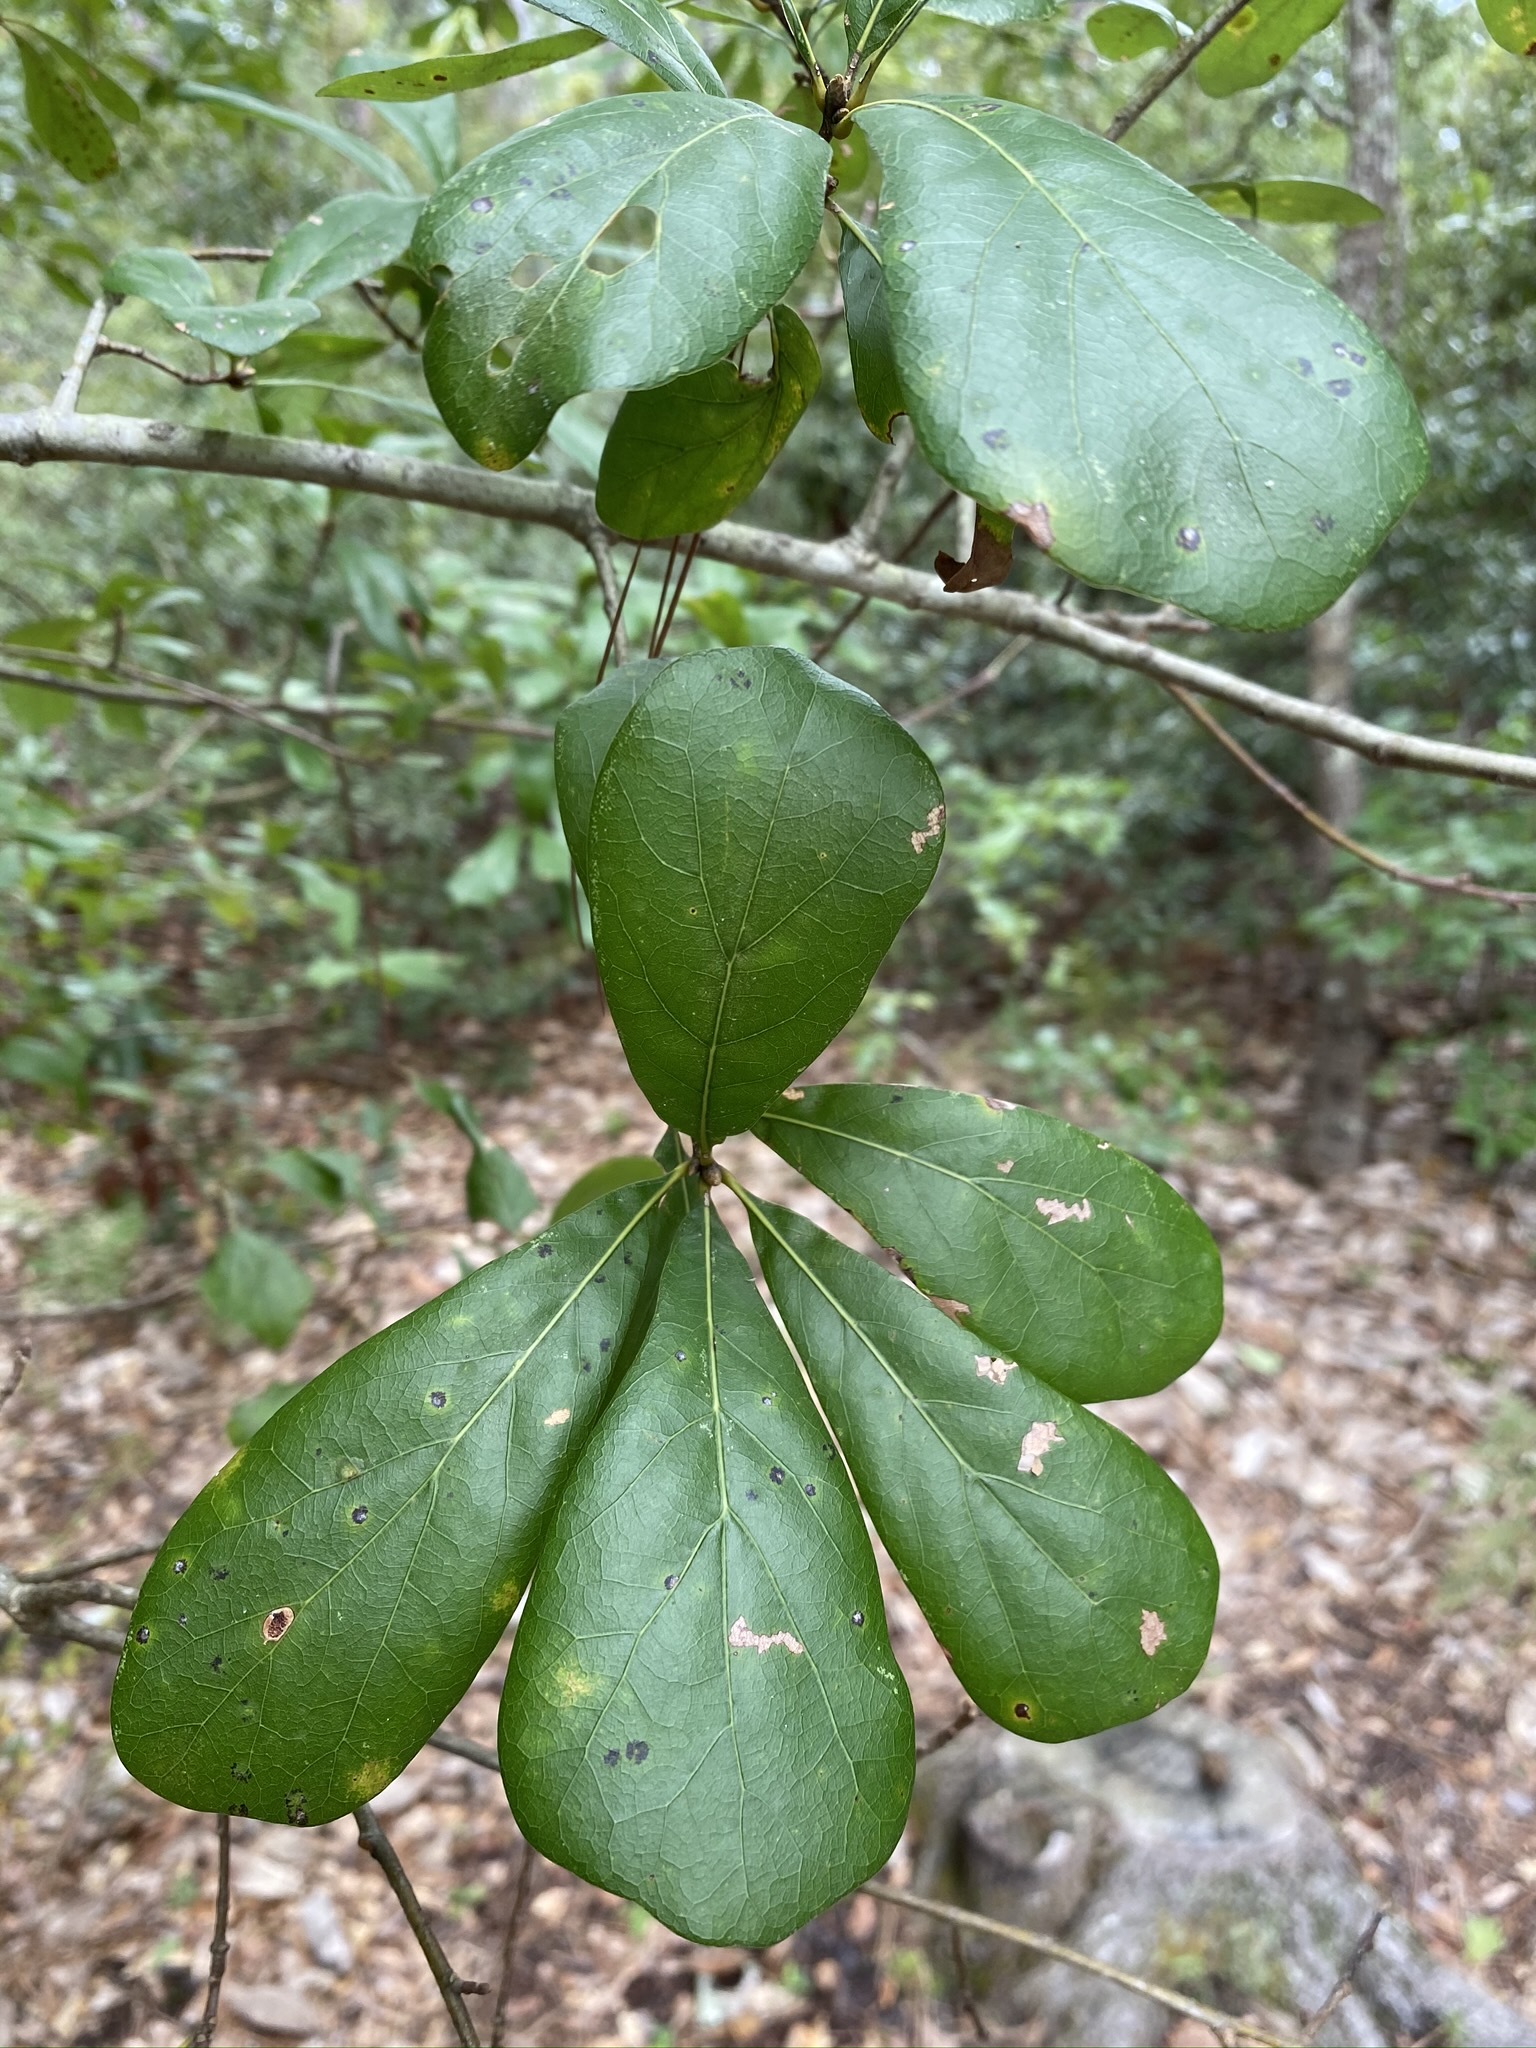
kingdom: Plantae
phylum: Tracheophyta
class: Magnoliopsida
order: Fagales
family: Fagaceae
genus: Quercus
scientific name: Quercus nigra
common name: Water oak
